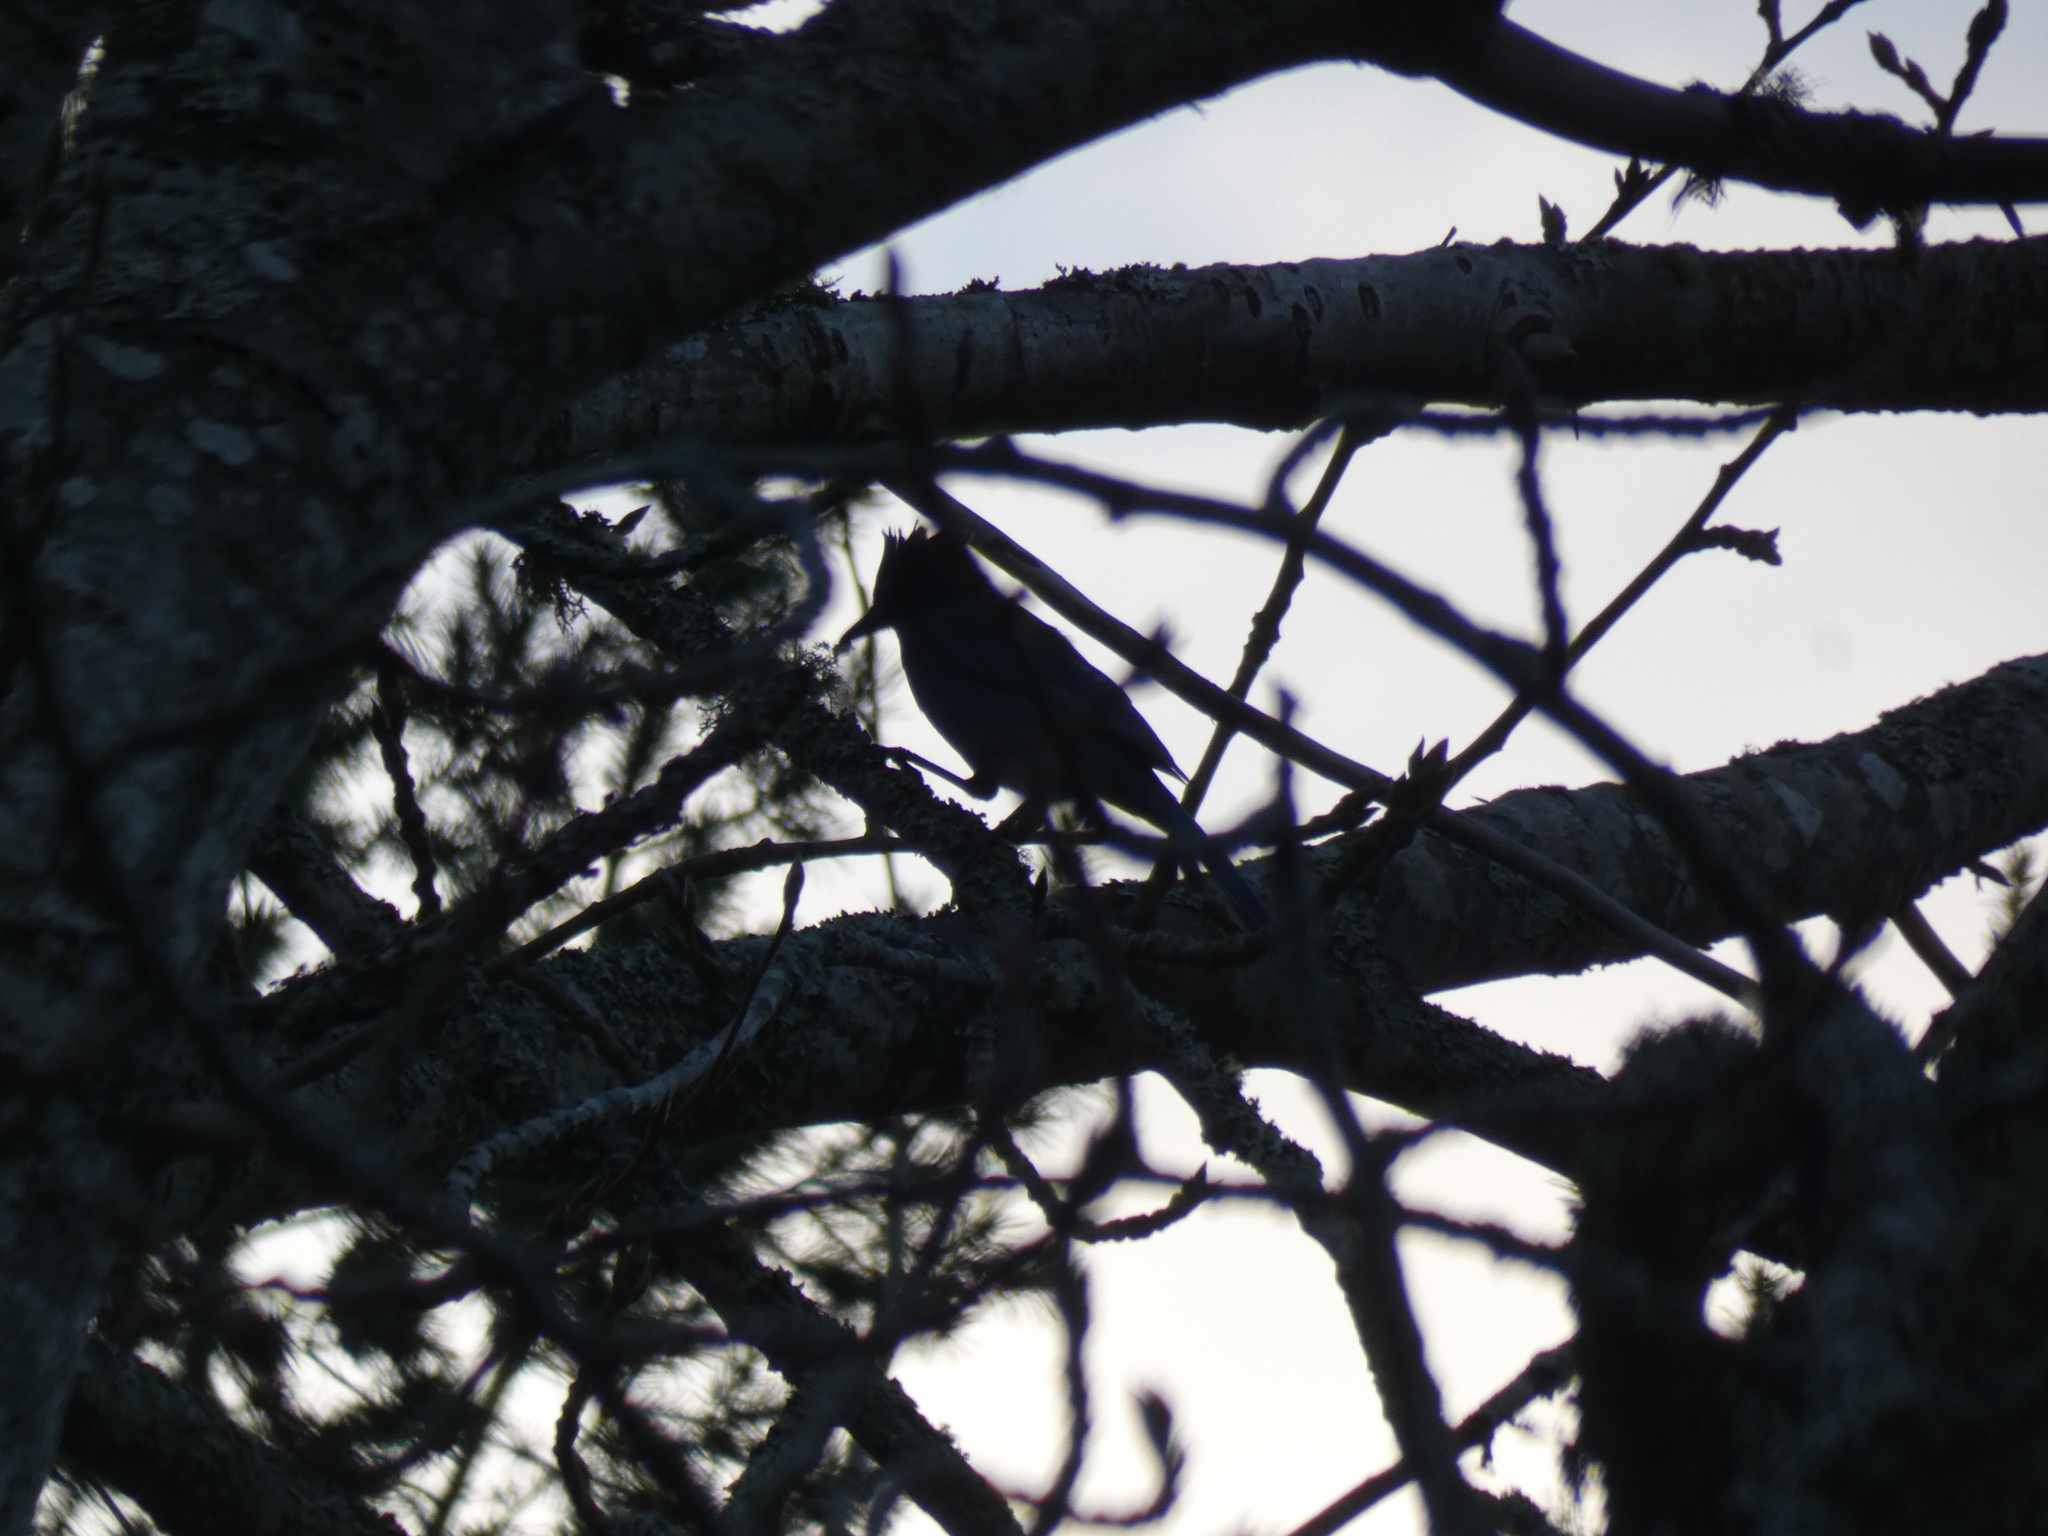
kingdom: Animalia
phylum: Chordata
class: Aves
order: Passeriformes
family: Corvidae
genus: Cyanocitta
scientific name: Cyanocitta stelleri
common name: Steller's jay
